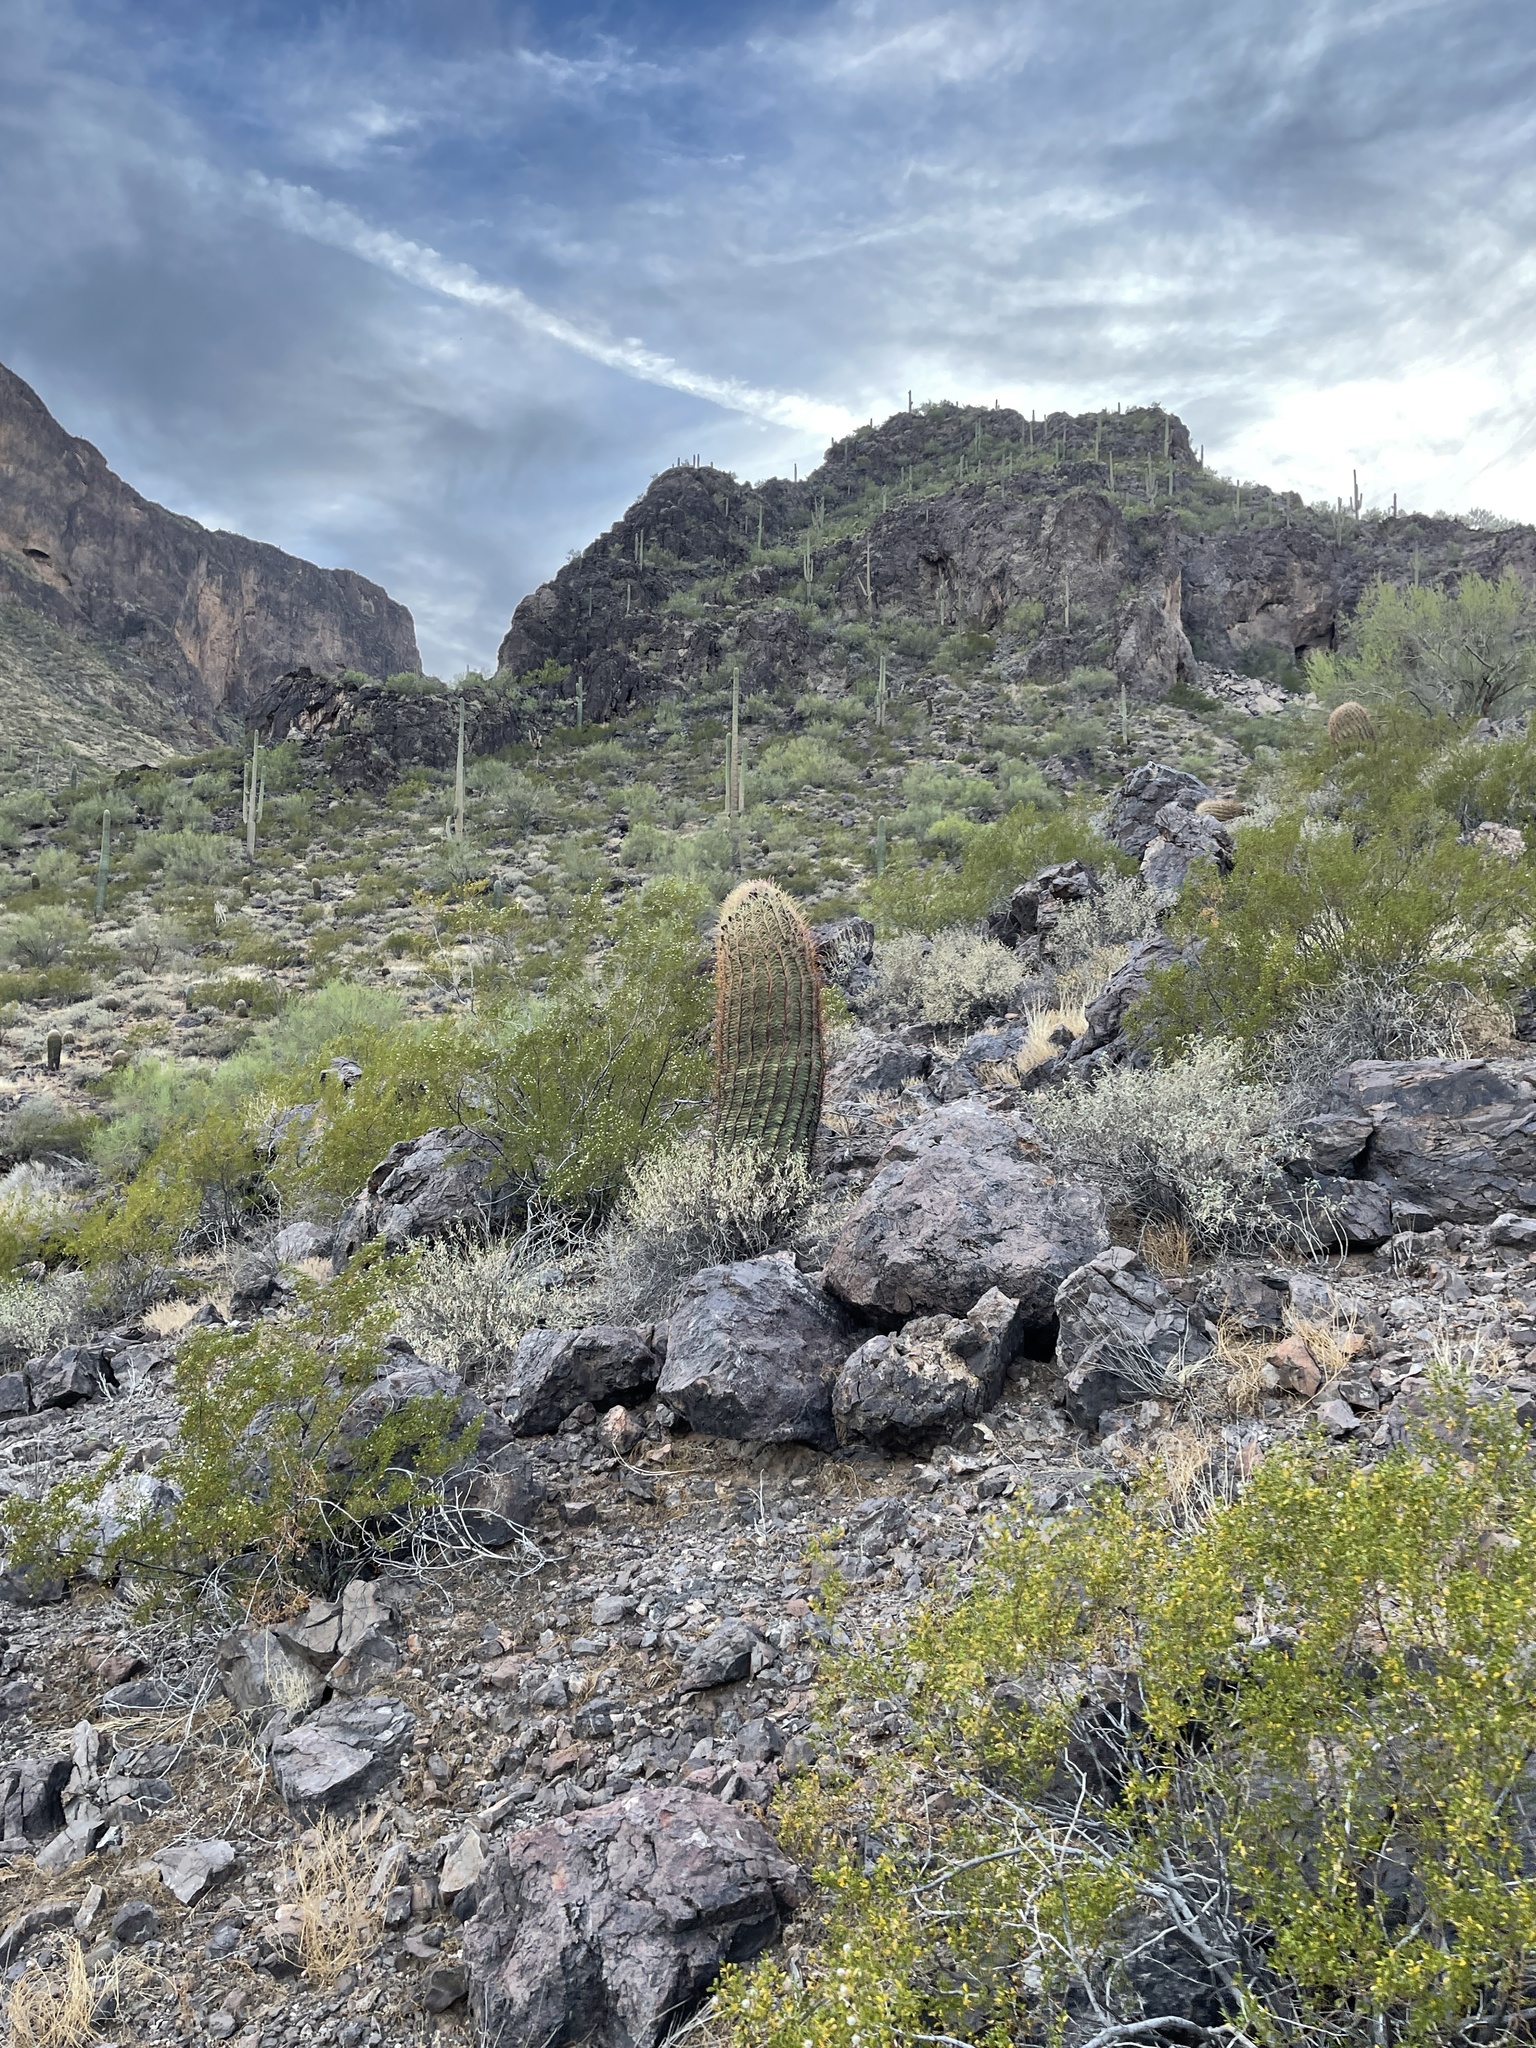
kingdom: Plantae
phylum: Tracheophyta
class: Magnoliopsida
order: Caryophyllales
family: Cactaceae
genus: Ferocactus
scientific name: Ferocactus cylindraceus
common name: California barrel cactus
